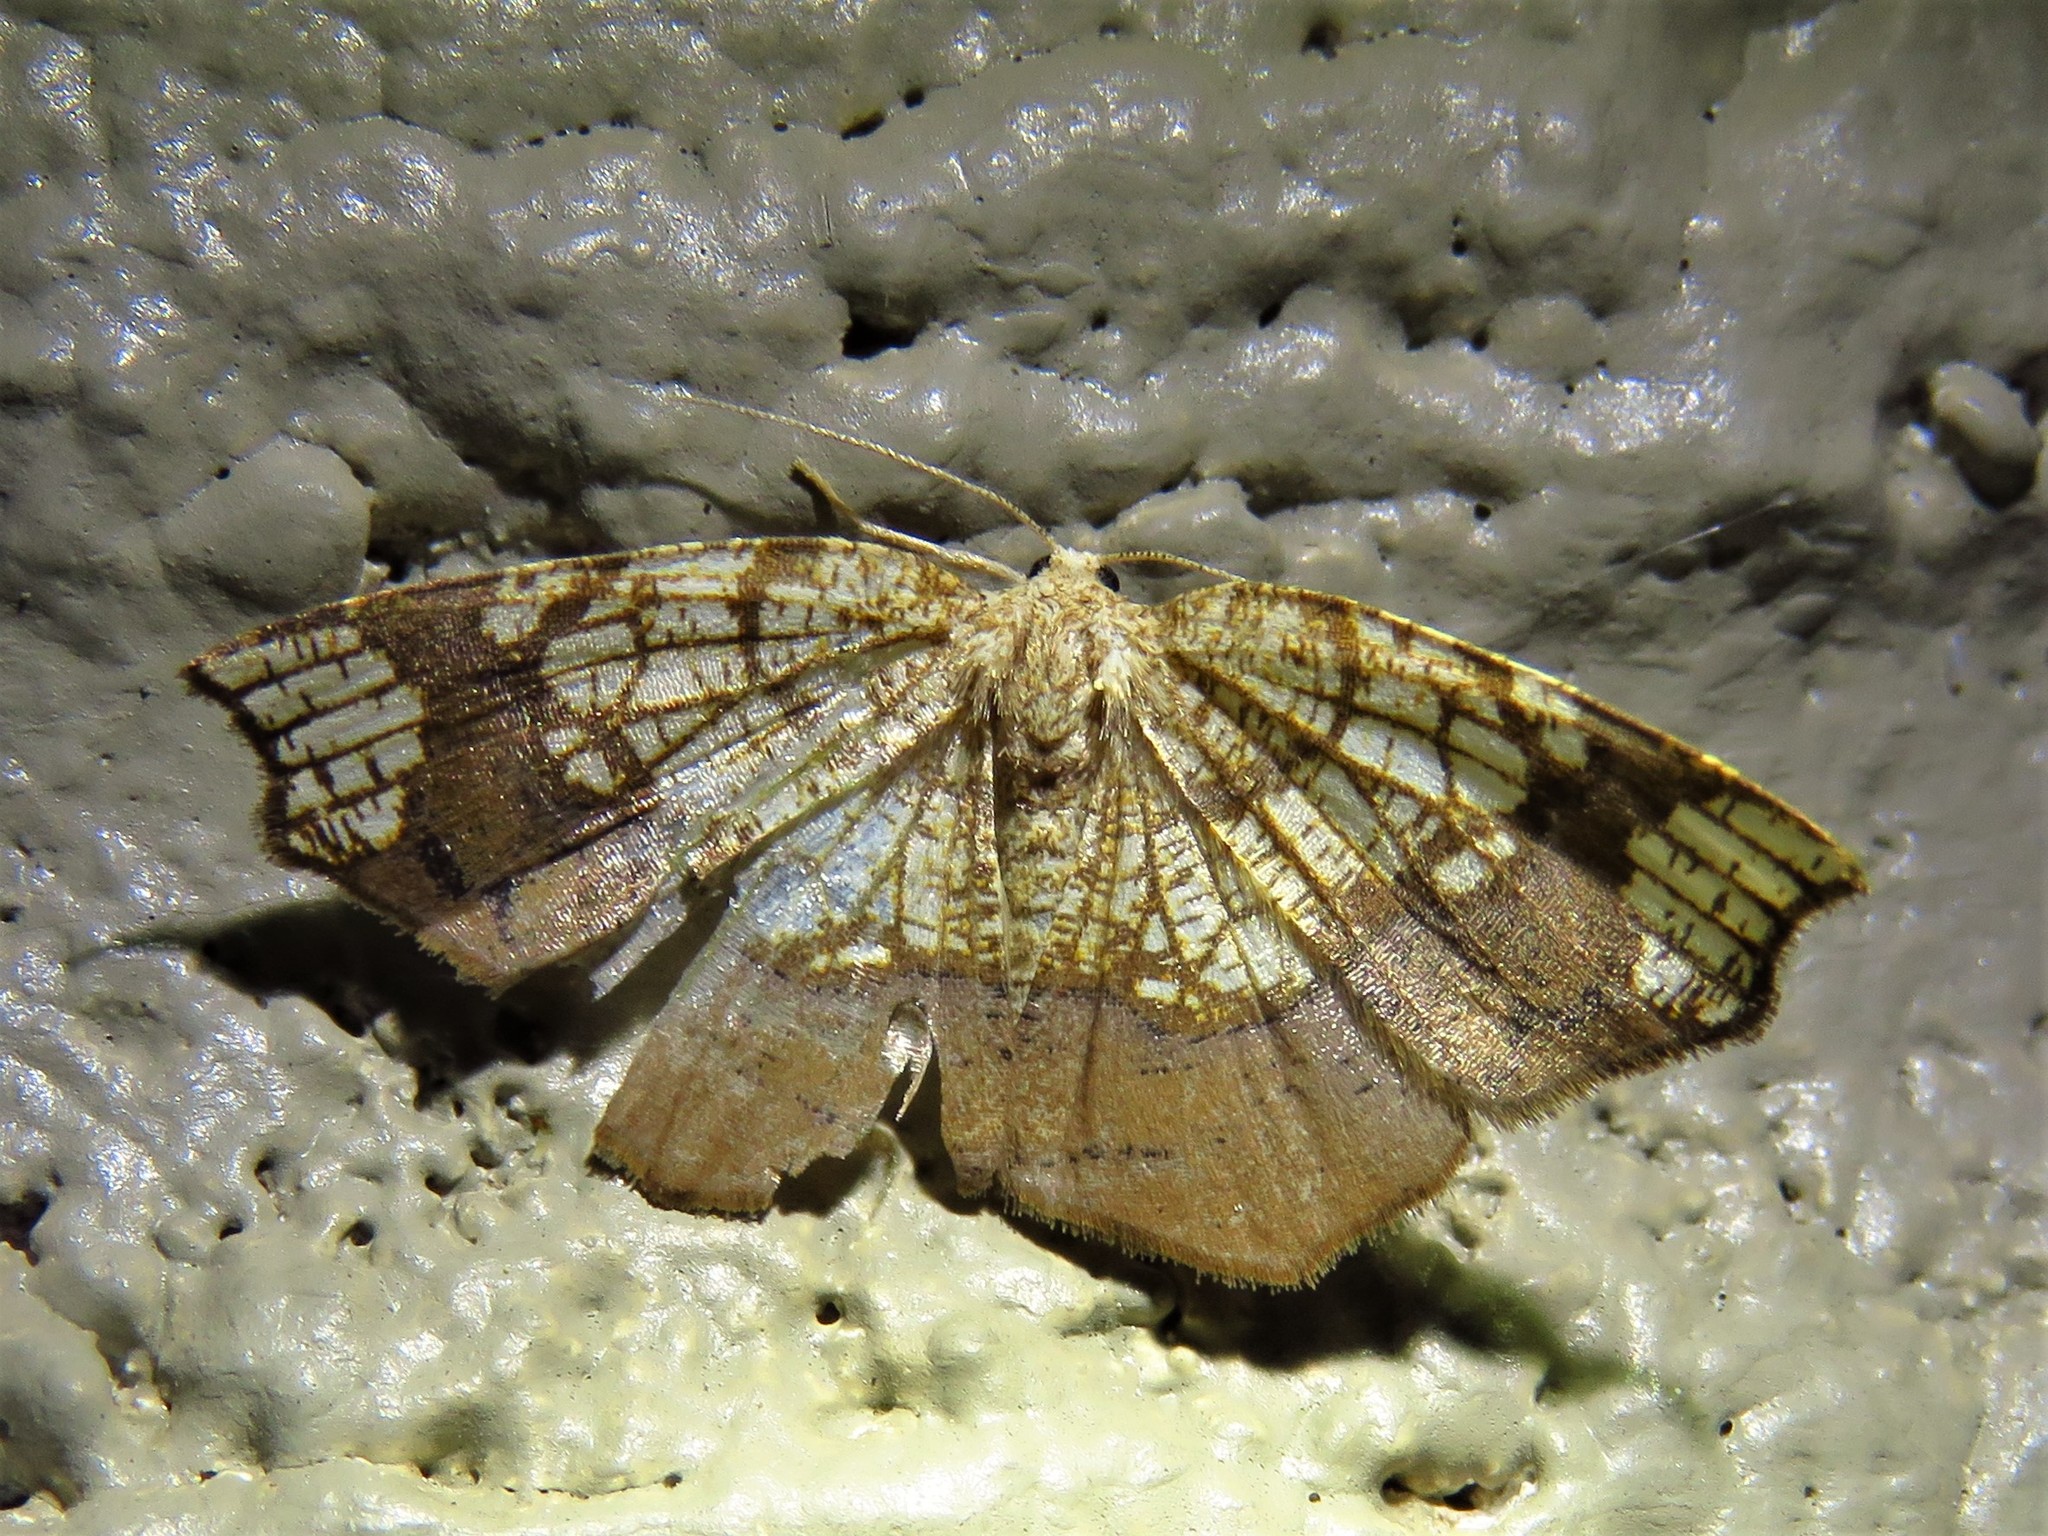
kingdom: Animalia
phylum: Arthropoda
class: Insecta
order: Lepidoptera
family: Geometridae
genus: Nematocampa
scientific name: Nematocampa resistaria
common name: Horned spanworm moth
